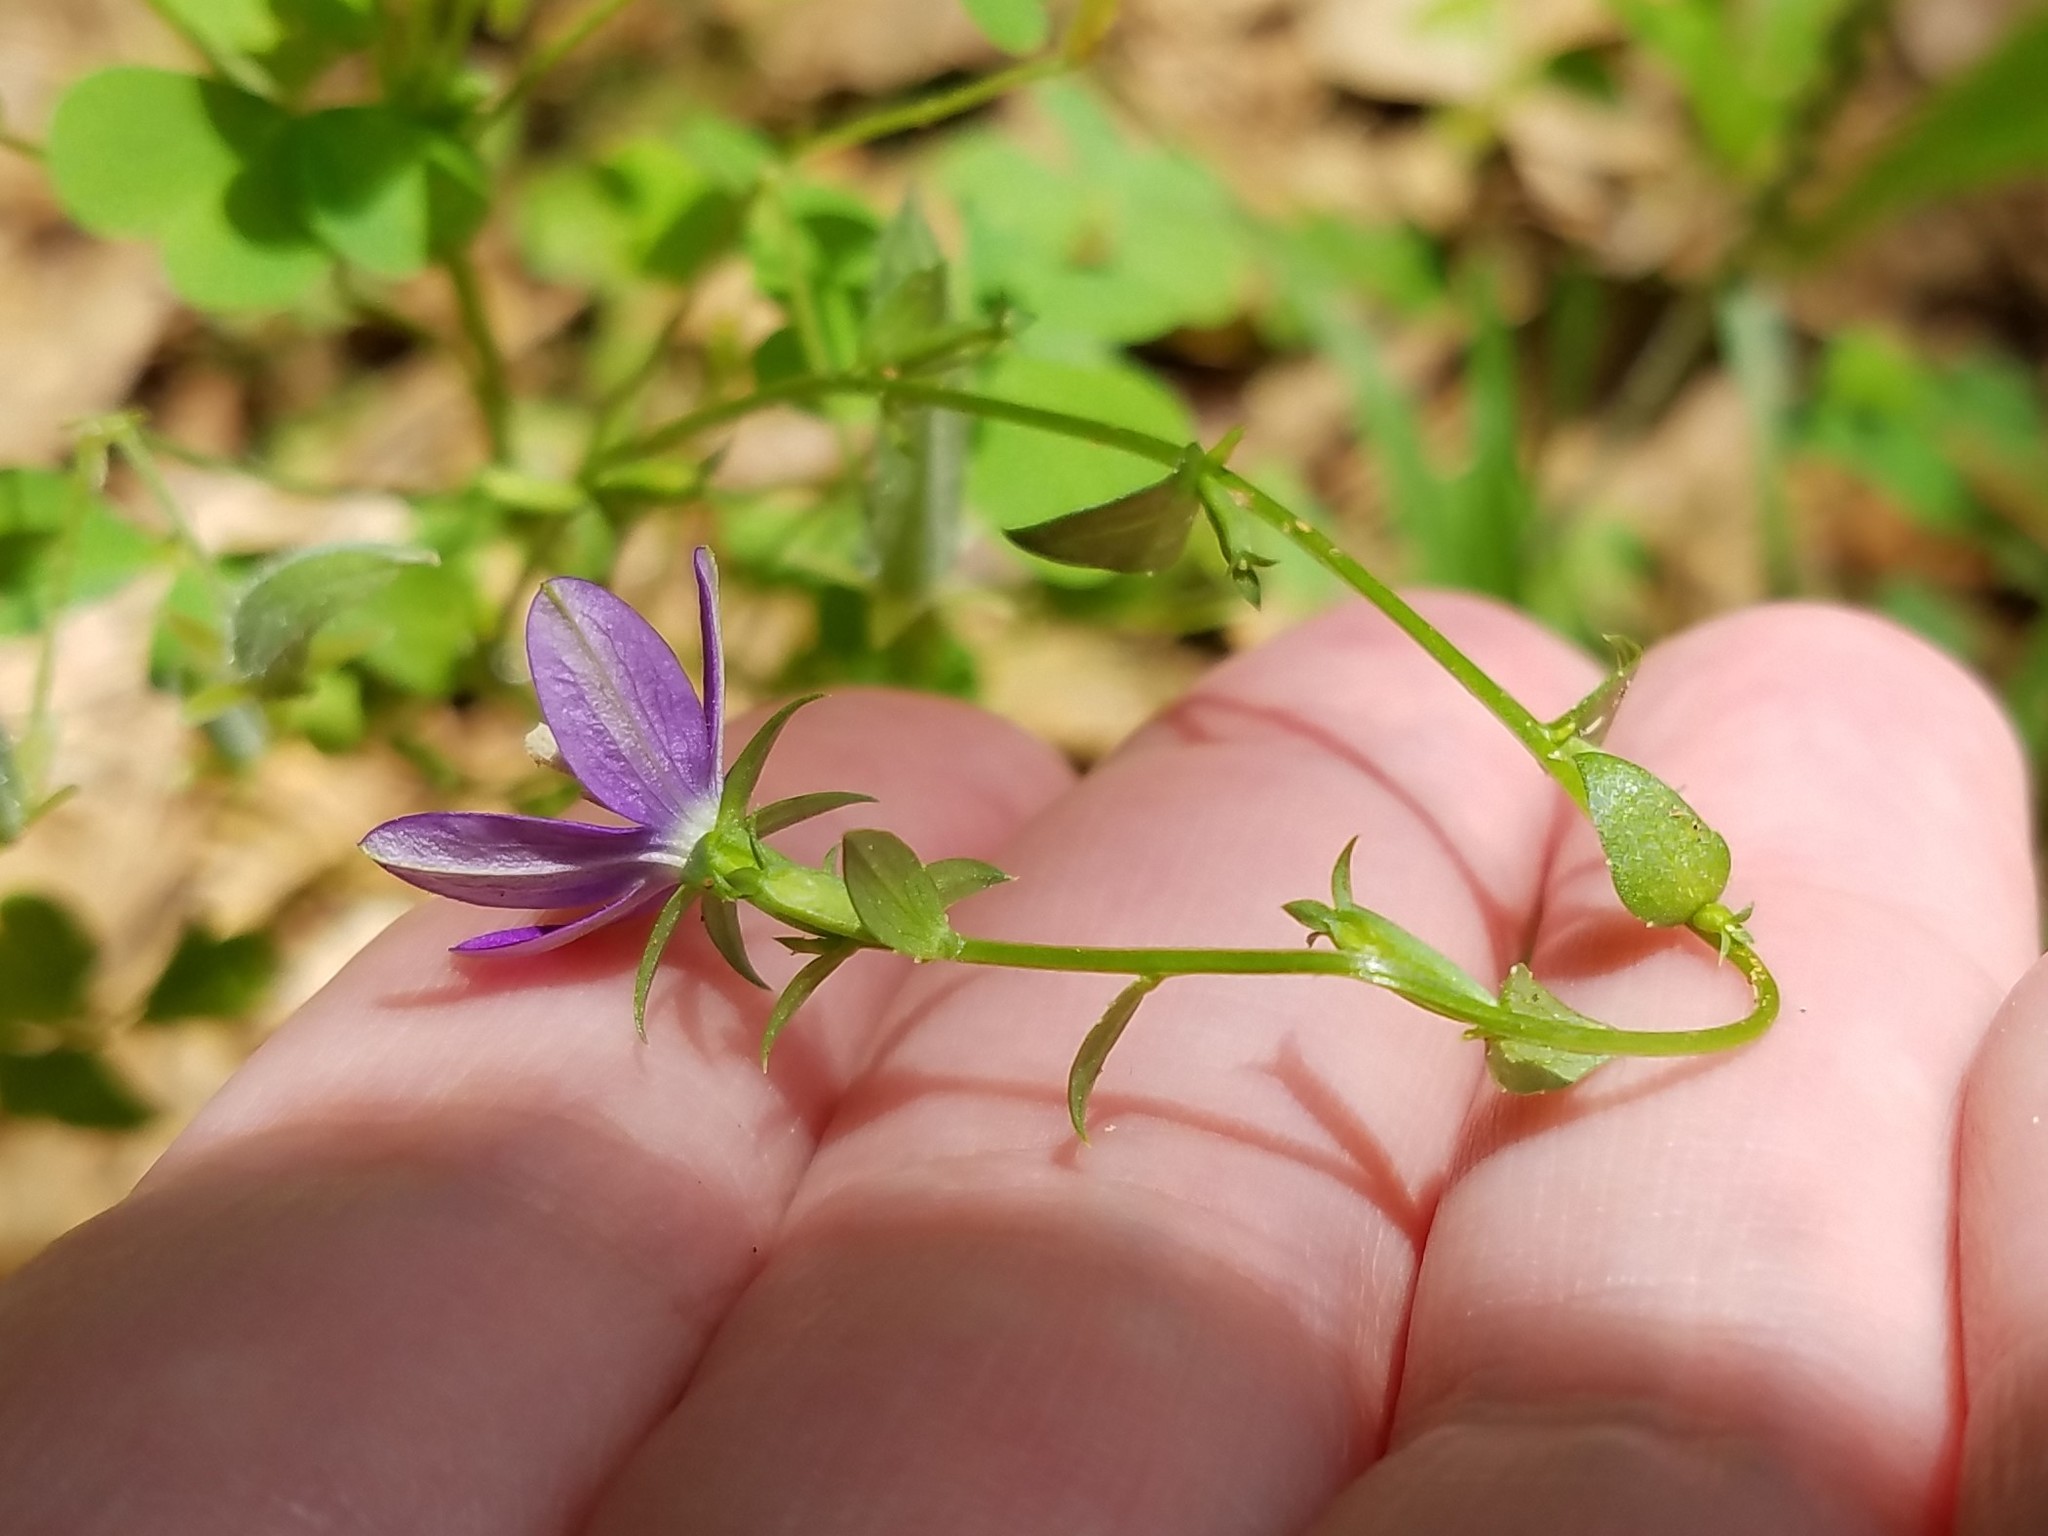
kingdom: Plantae
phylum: Tracheophyta
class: Magnoliopsida
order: Asterales
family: Campanulaceae
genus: Triodanis
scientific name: Triodanis biflora
